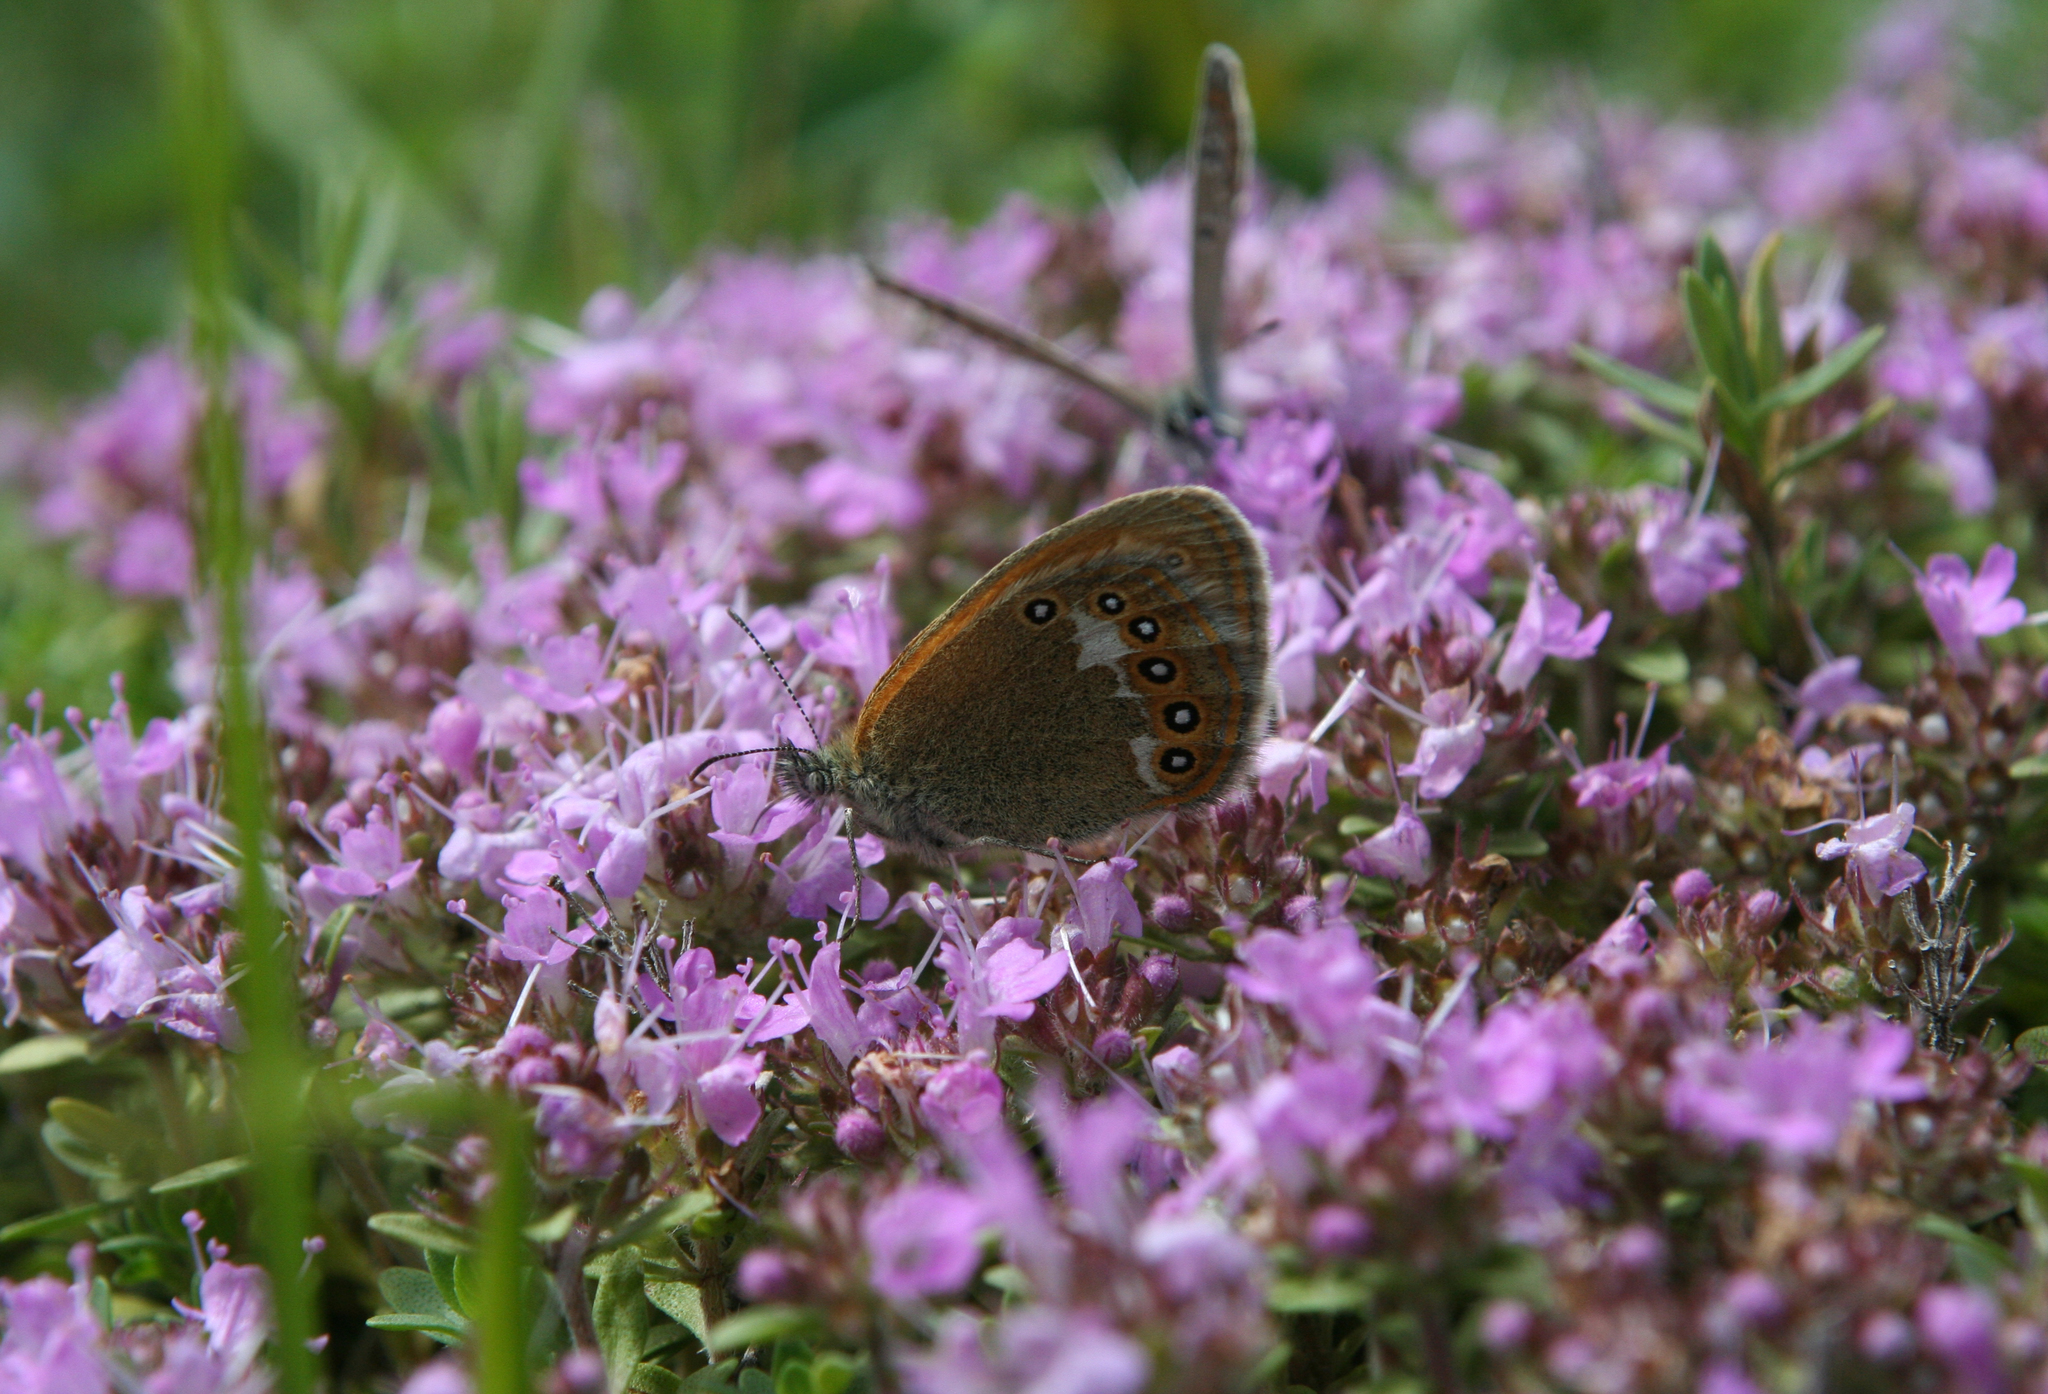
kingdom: Animalia
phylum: Arthropoda
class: Insecta
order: Lepidoptera
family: Nymphalidae
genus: Coenonympha
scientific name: Coenonympha iphis
